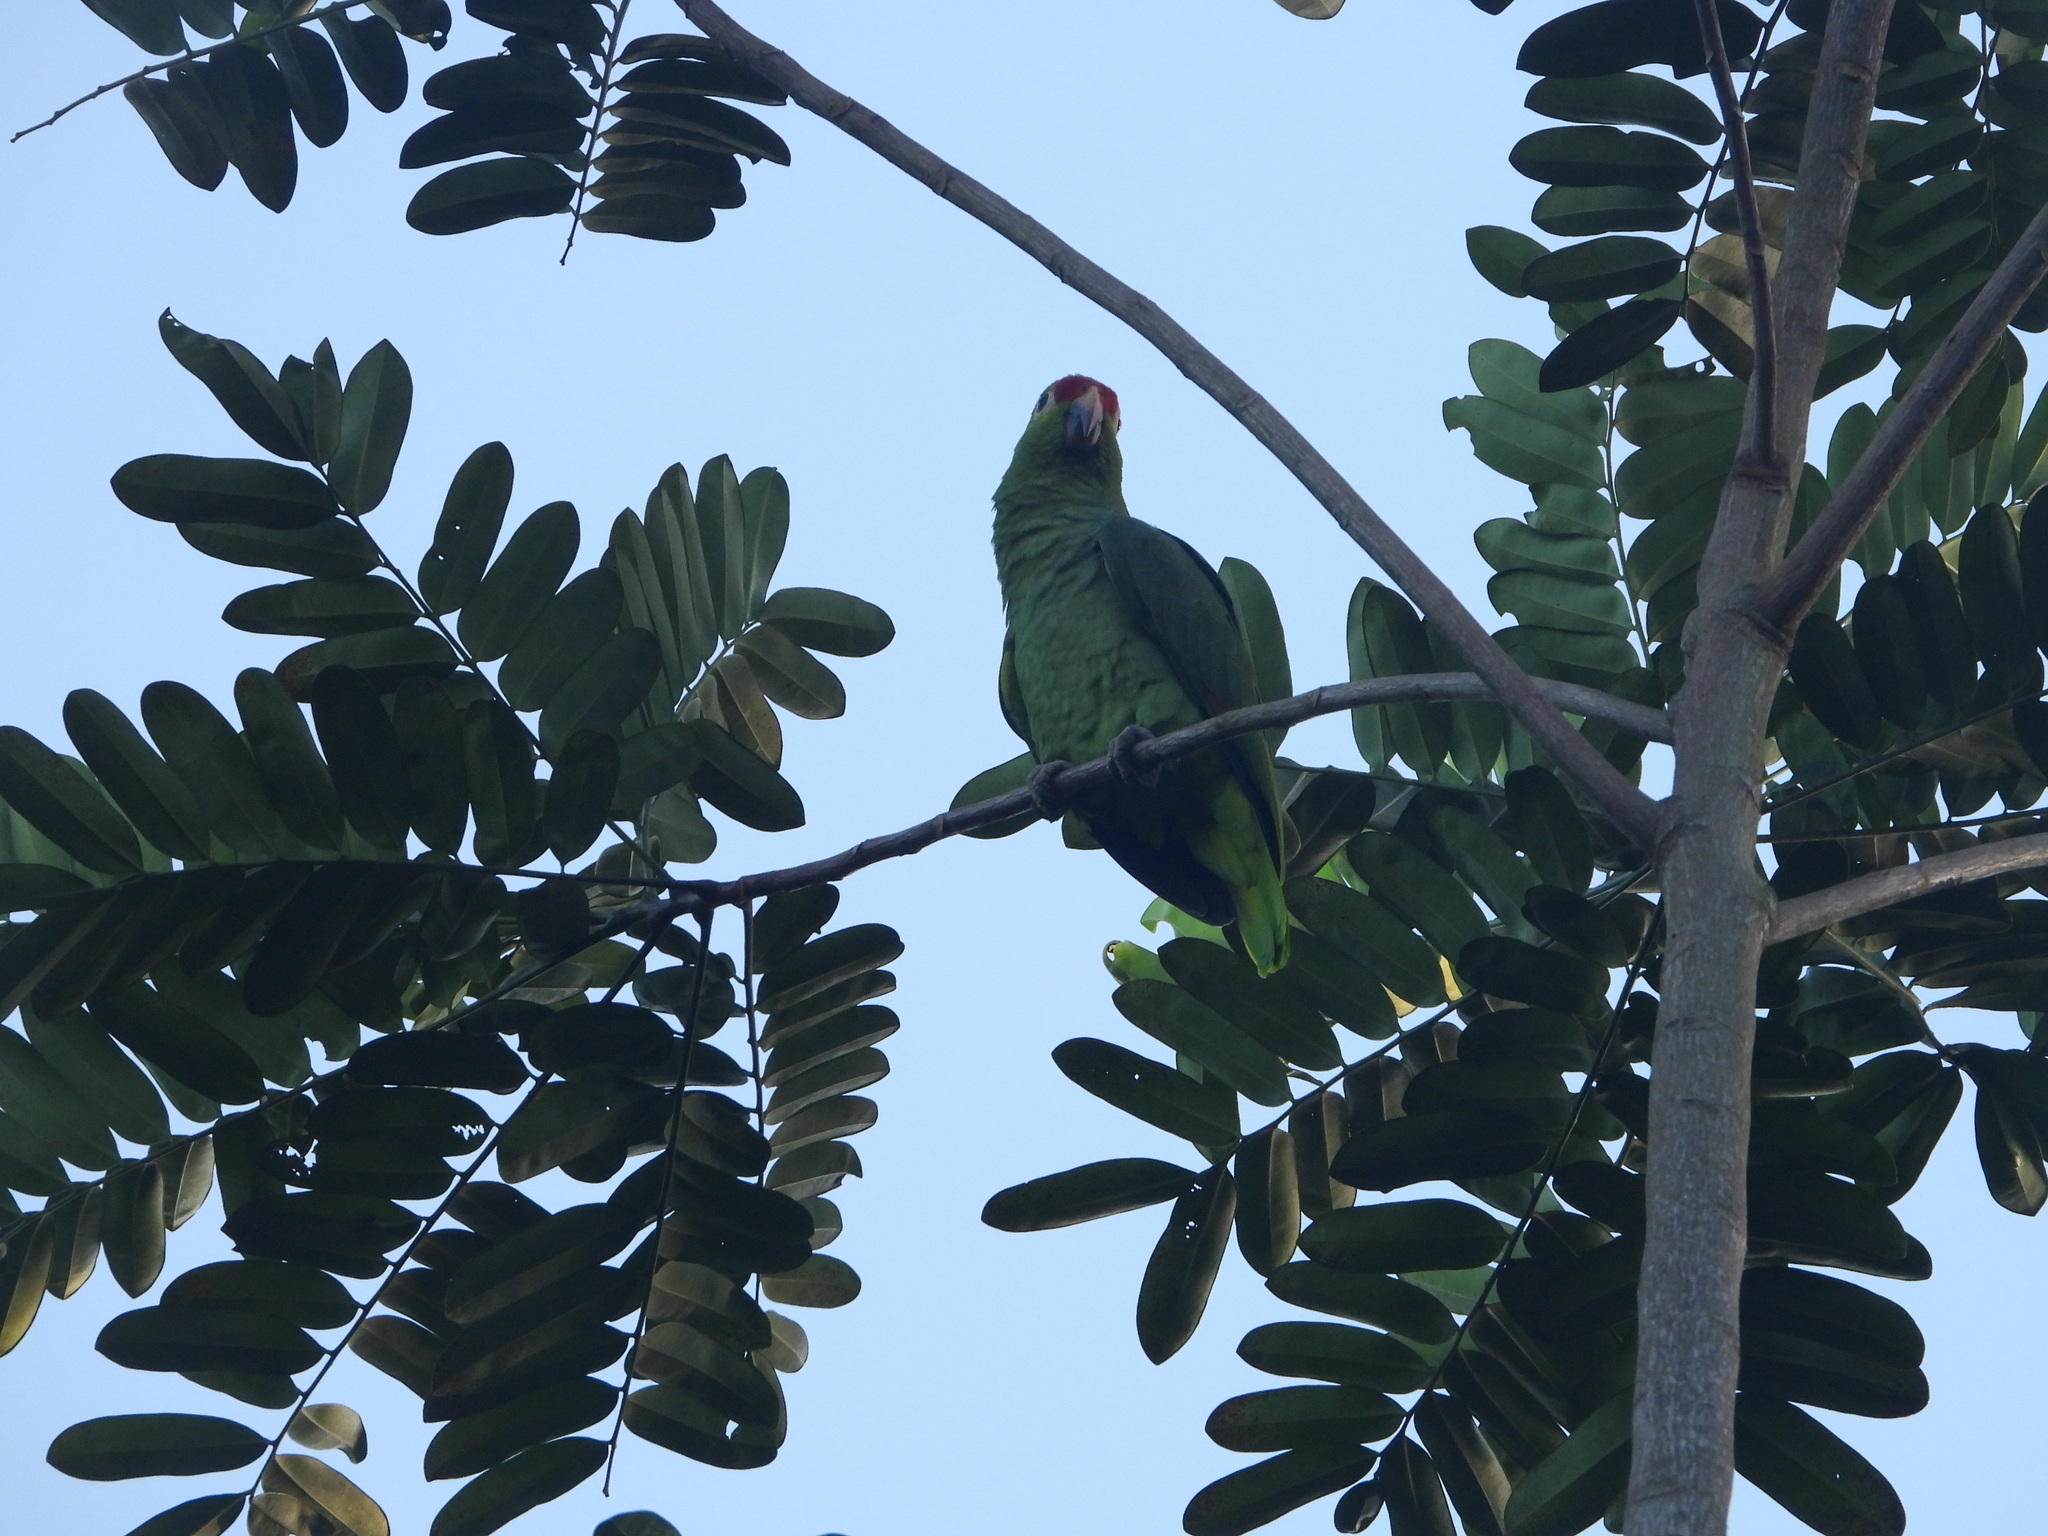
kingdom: Animalia
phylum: Chordata
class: Aves
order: Psittaciformes
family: Psittacidae
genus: Amazona
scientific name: Amazona autumnalis
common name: Red-lored amazon
